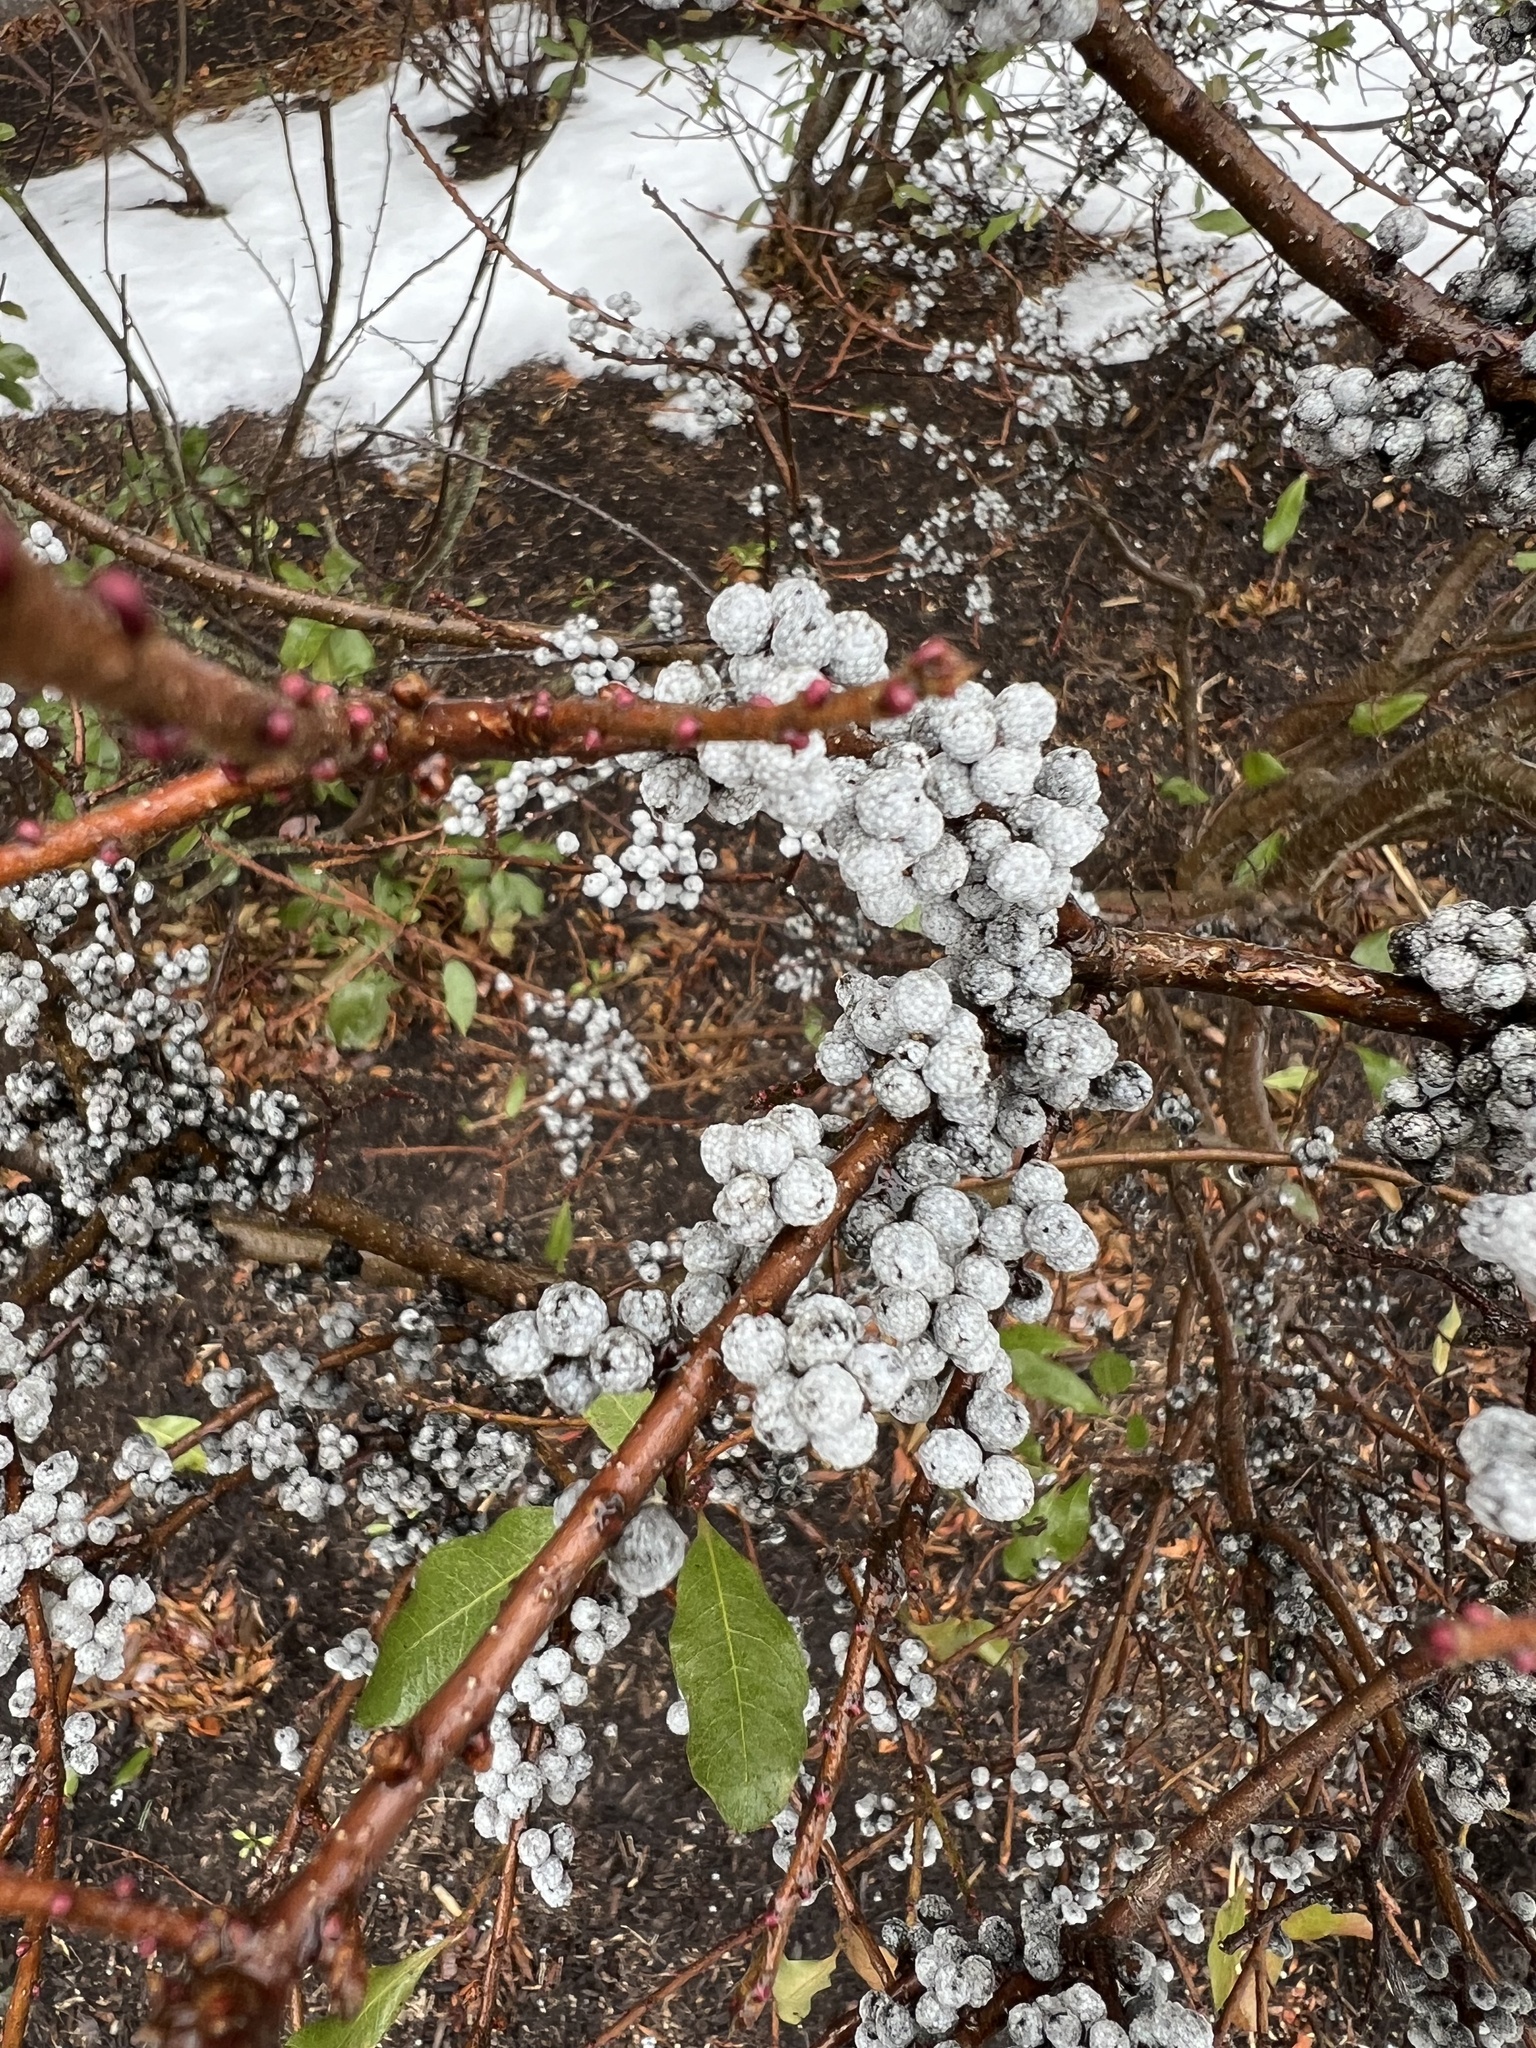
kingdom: Plantae
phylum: Tracheophyta
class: Magnoliopsida
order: Fagales
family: Myricaceae
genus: Morella
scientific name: Morella pensylvanica
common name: Northern bayberry
